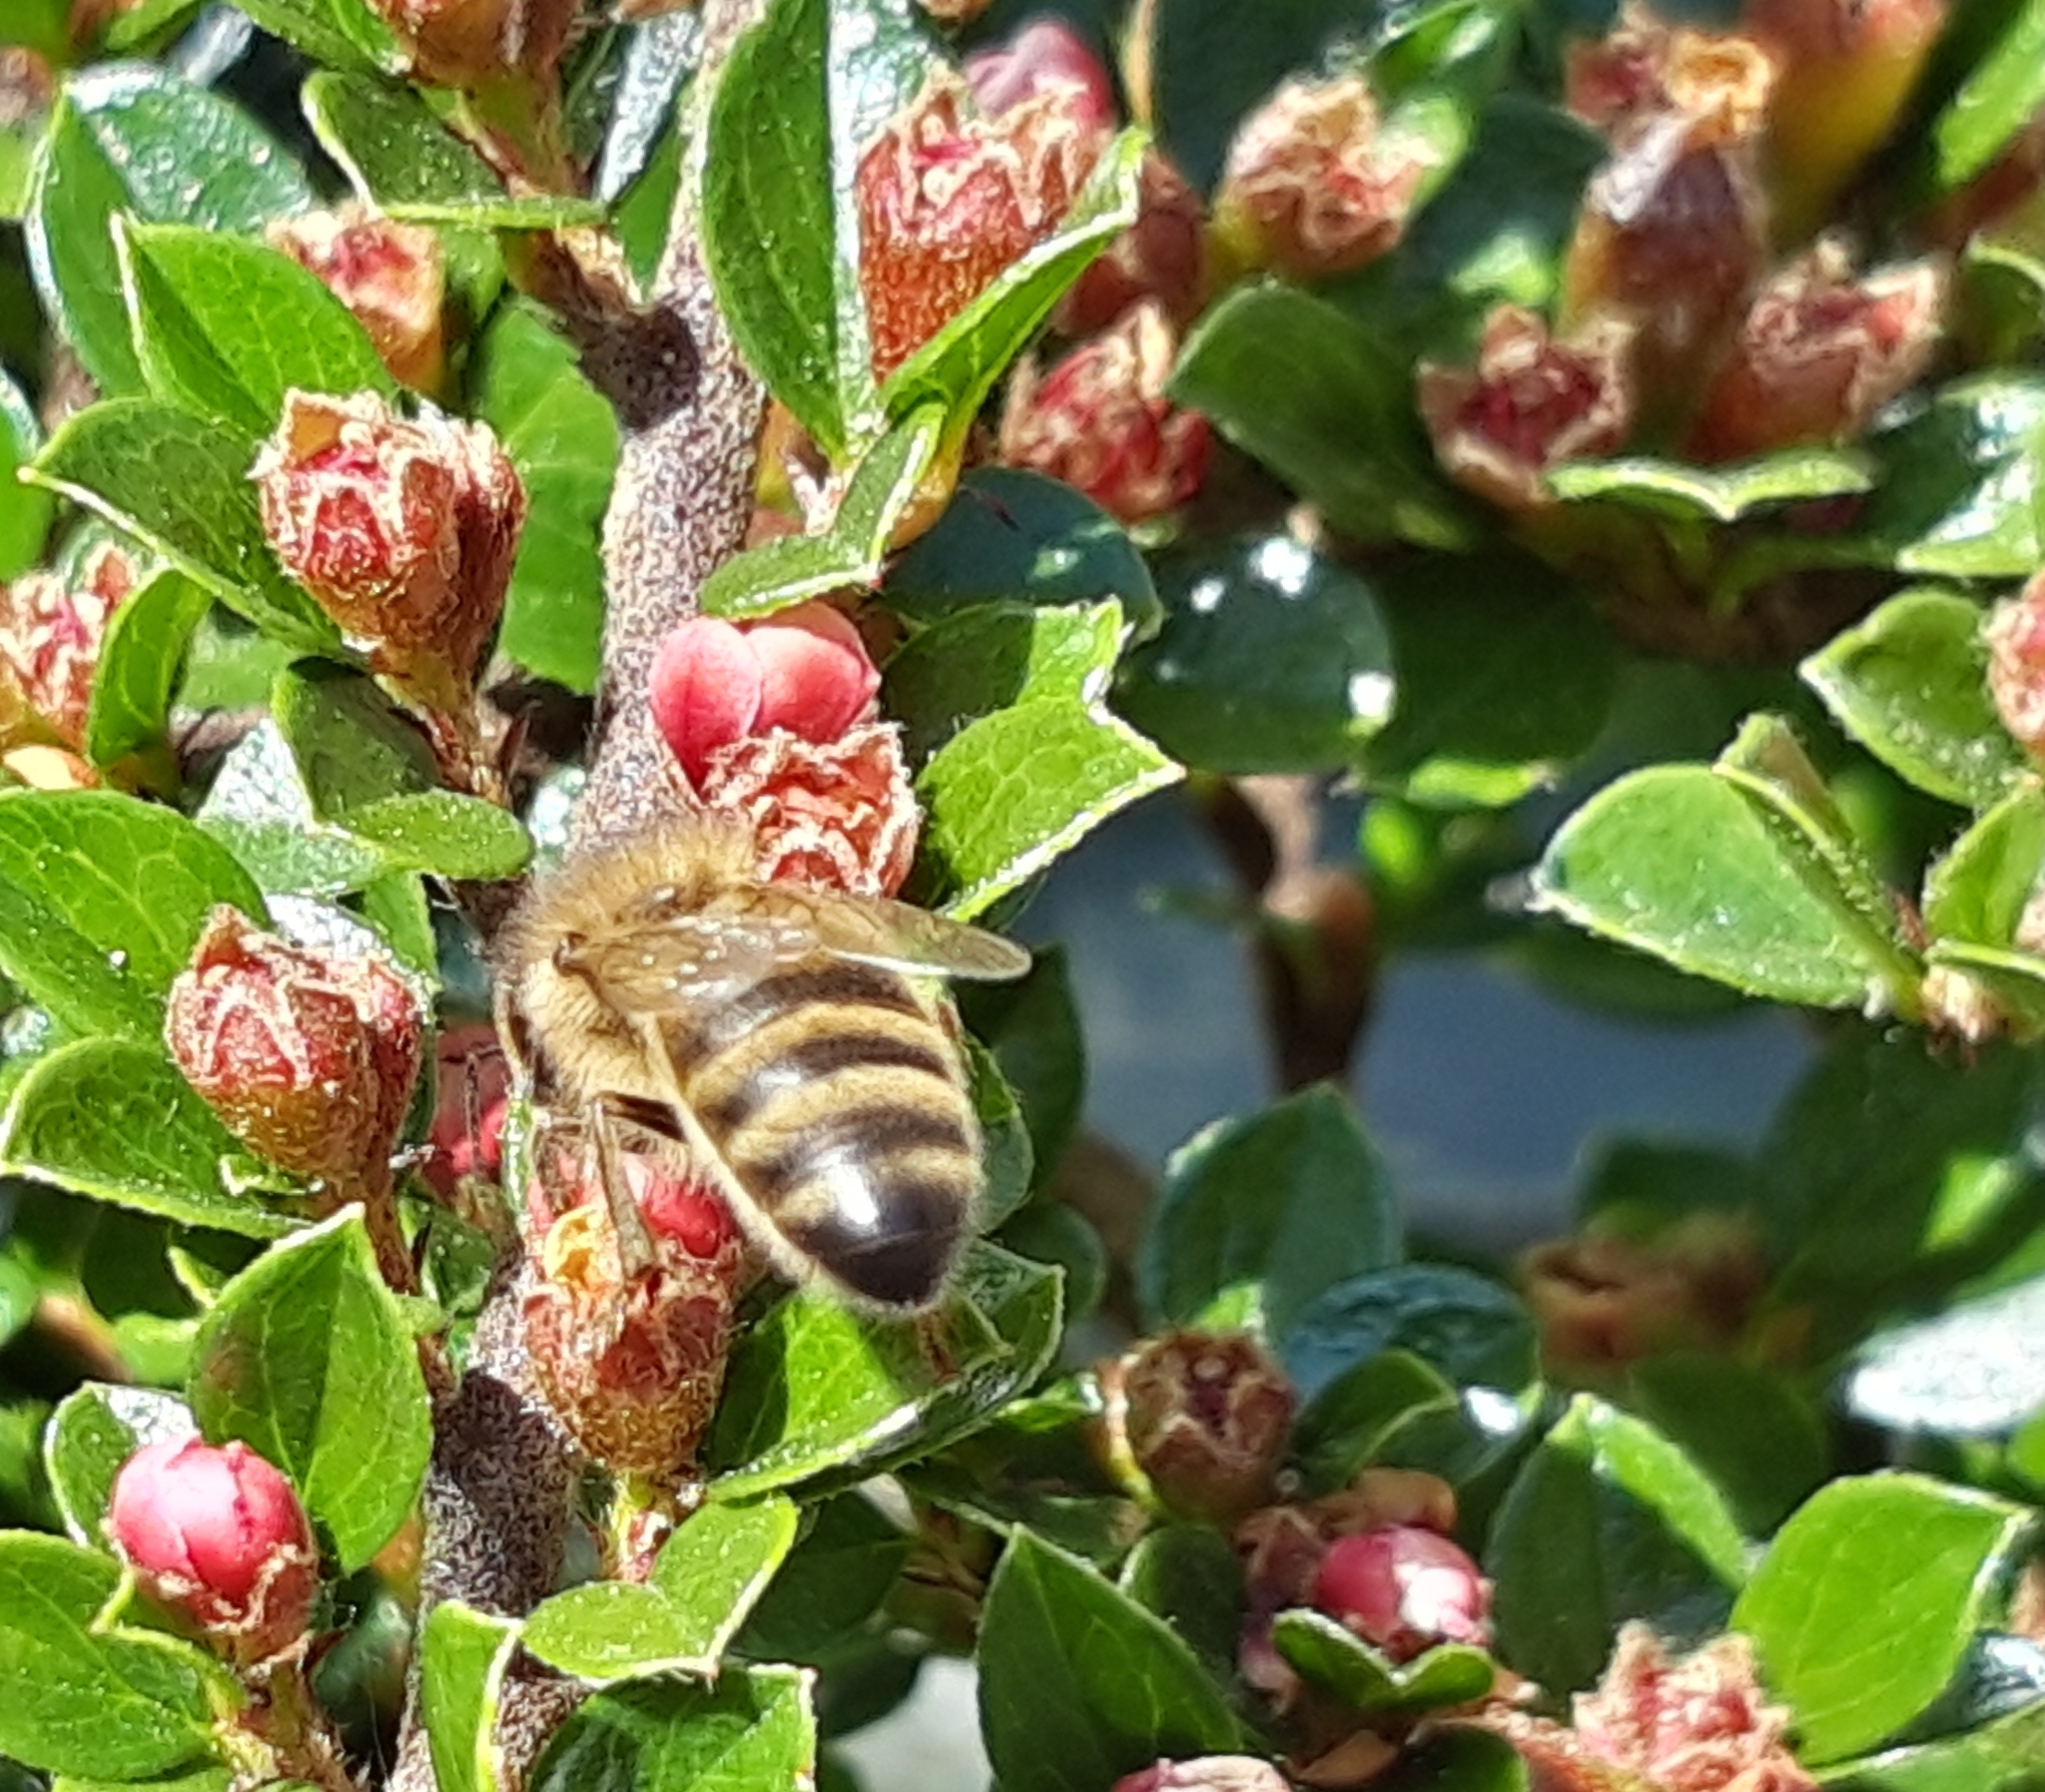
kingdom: Animalia
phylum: Arthropoda
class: Insecta
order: Hymenoptera
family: Apidae
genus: Apis
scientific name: Apis mellifera
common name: Honey bee
